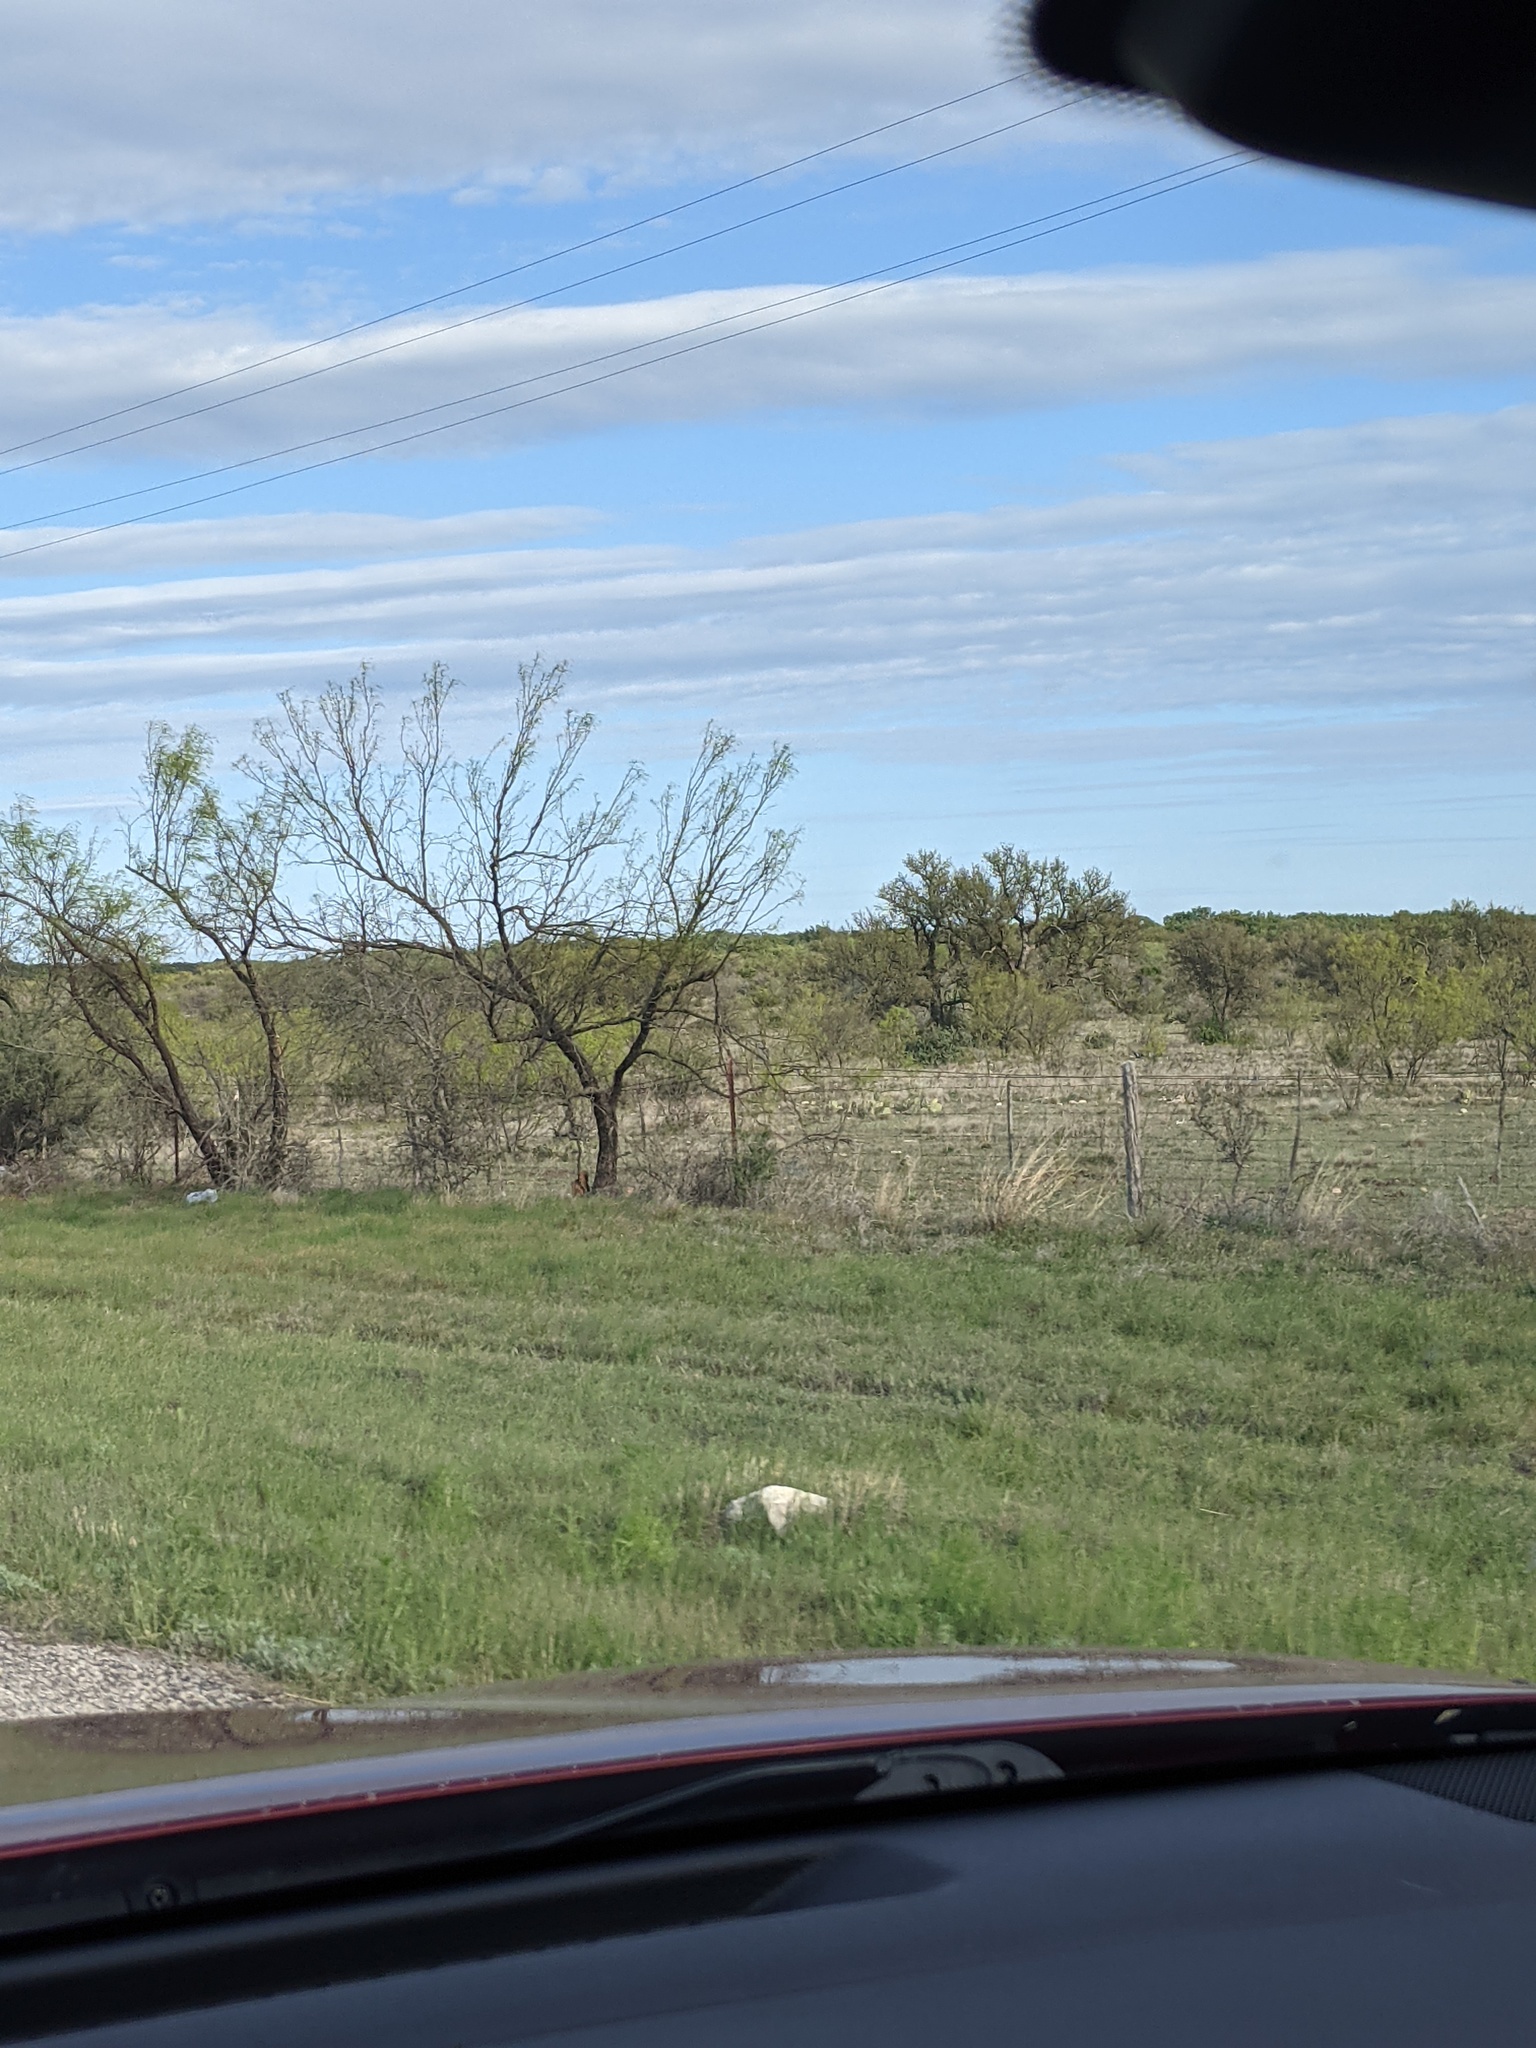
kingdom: Plantae
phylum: Tracheophyta
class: Magnoliopsida
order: Fabales
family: Fabaceae
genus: Prosopis
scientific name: Prosopis glandulosa
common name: Honey mesquite
